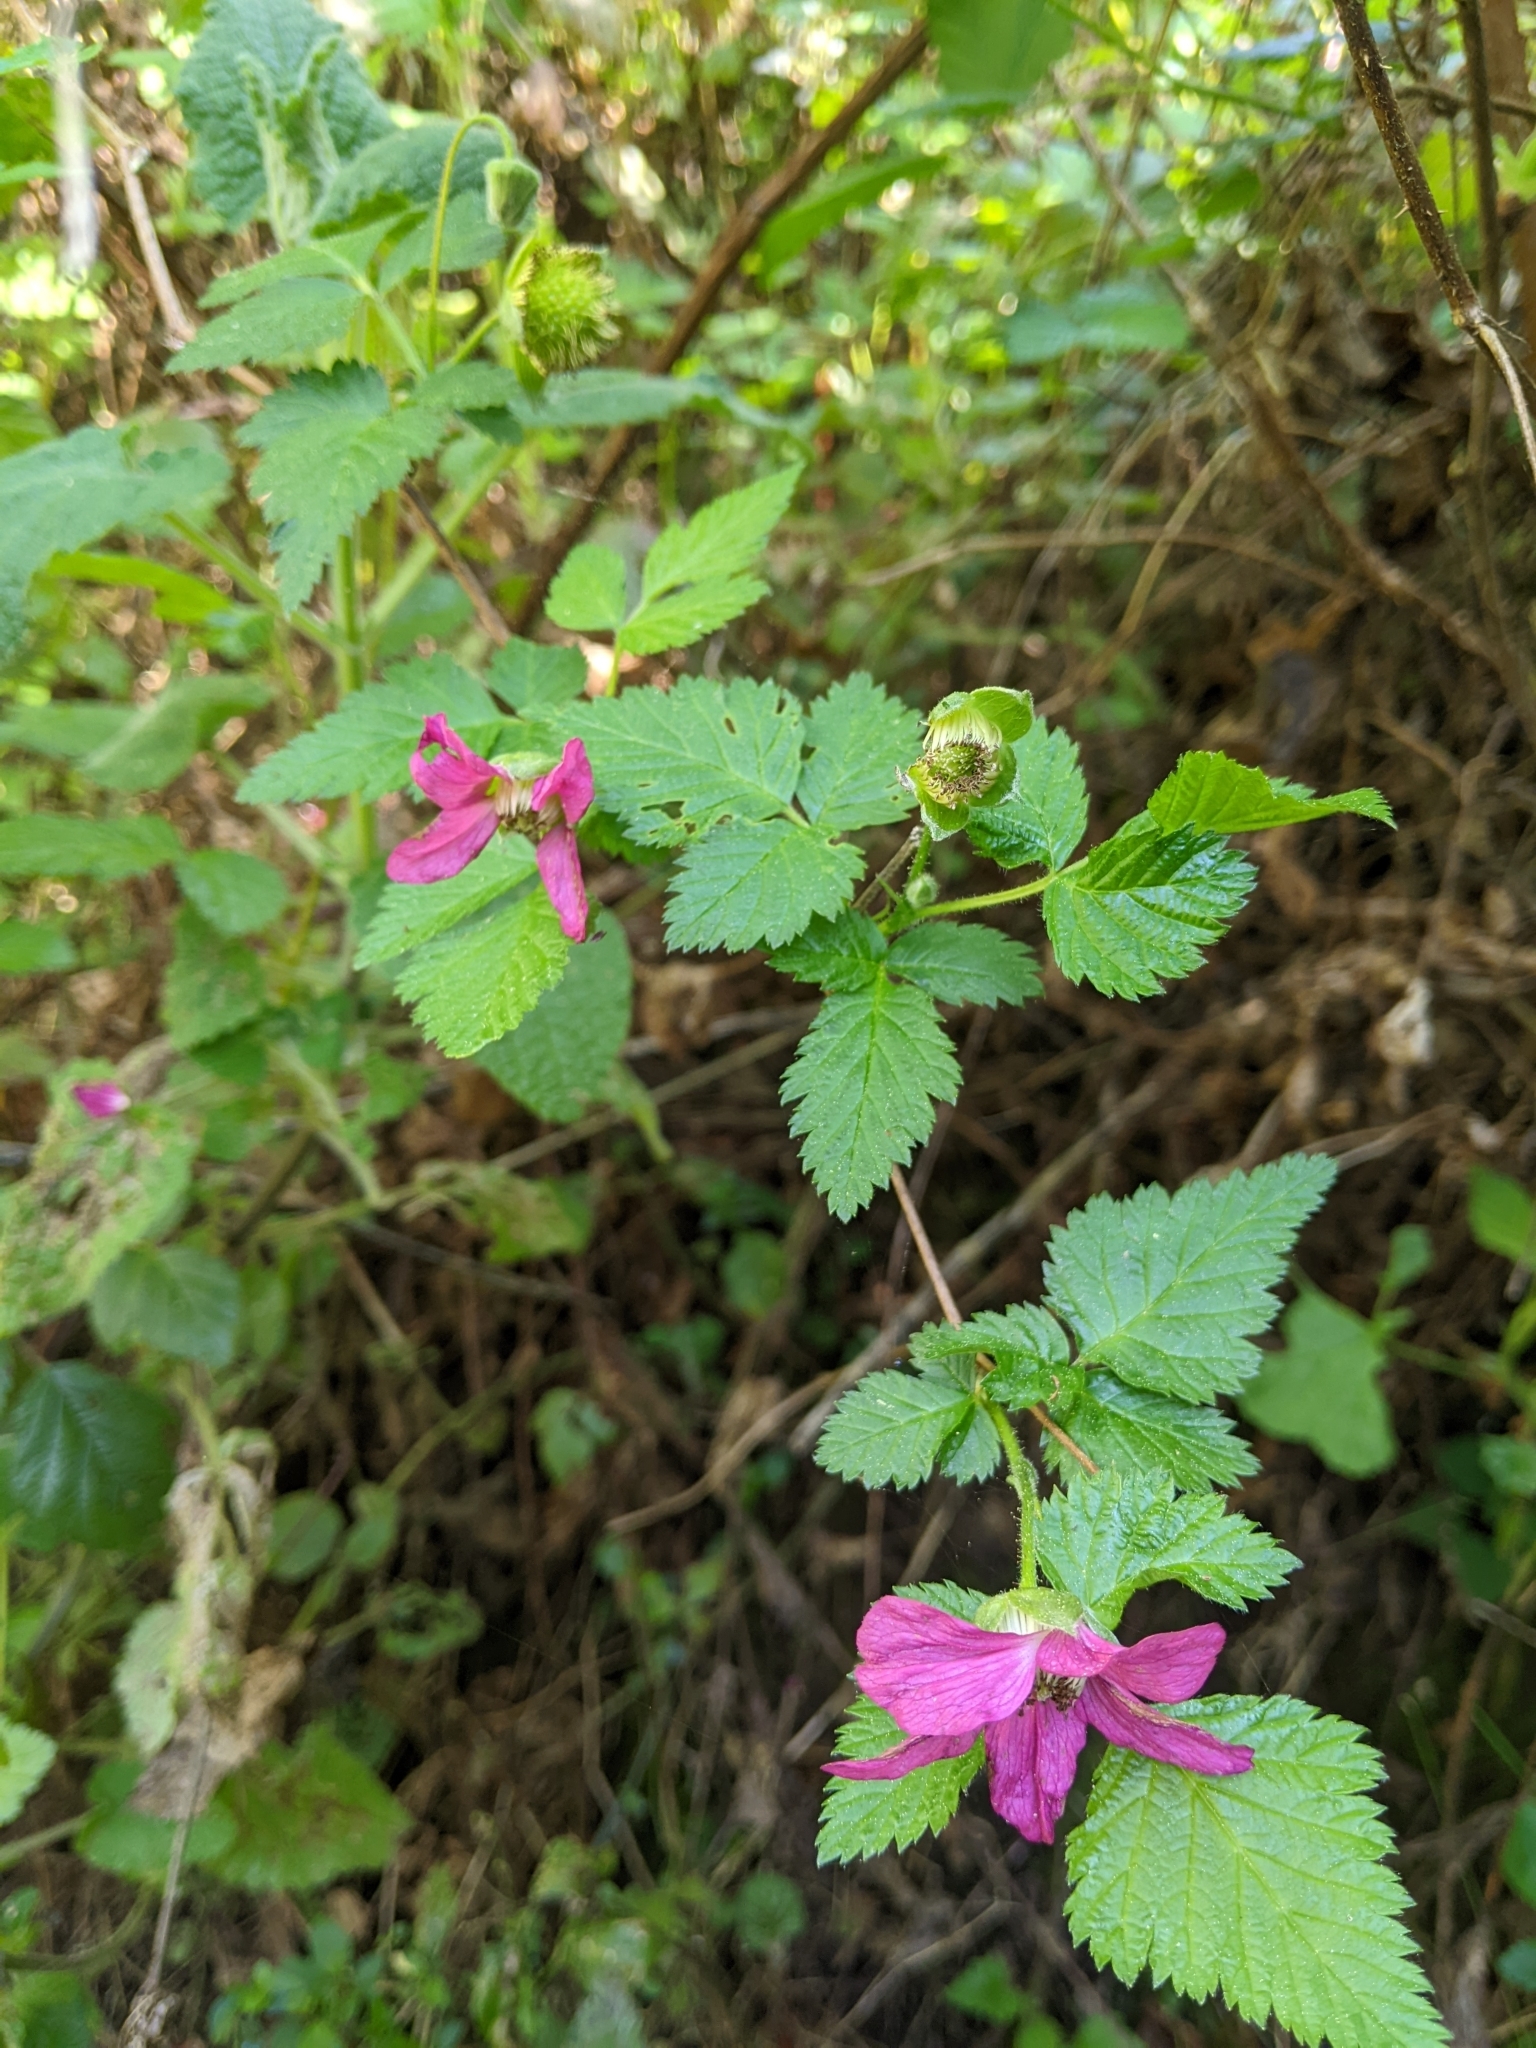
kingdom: Plantae
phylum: Tracheophyta
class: Magnoliopsida
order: Rosales
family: Rosaceae
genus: Rubus
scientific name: Rubus spectabilis
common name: Salmonberry
